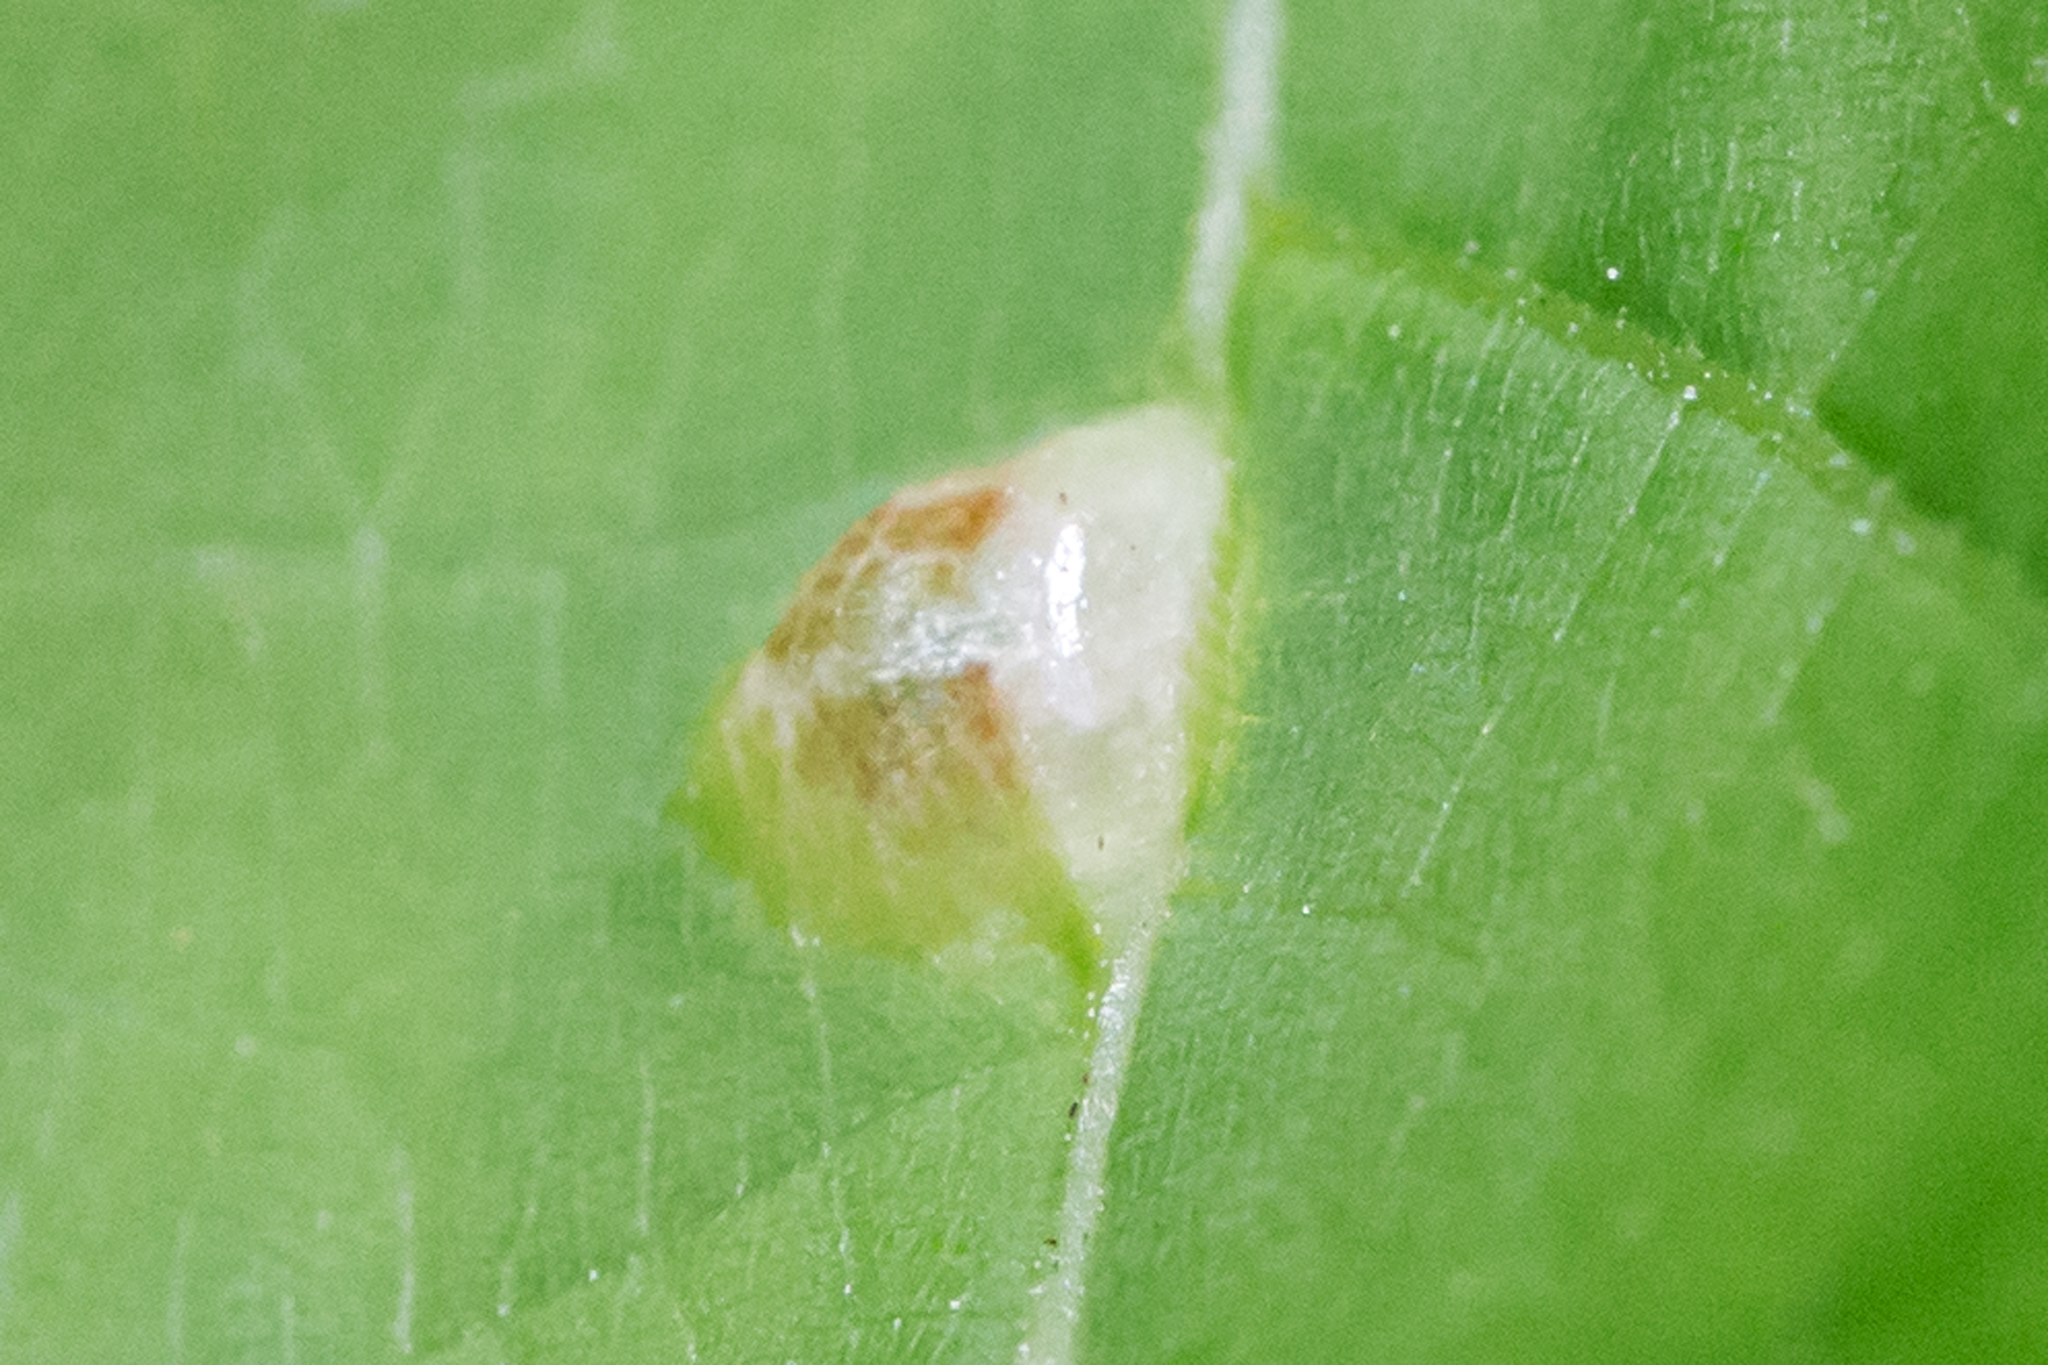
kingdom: Animalia
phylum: Arthropoda
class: Insecta
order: Diptera
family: Cecidomyiidae
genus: Contarinia
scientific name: Contarinia verrucicola
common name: Linden wart gall midge
